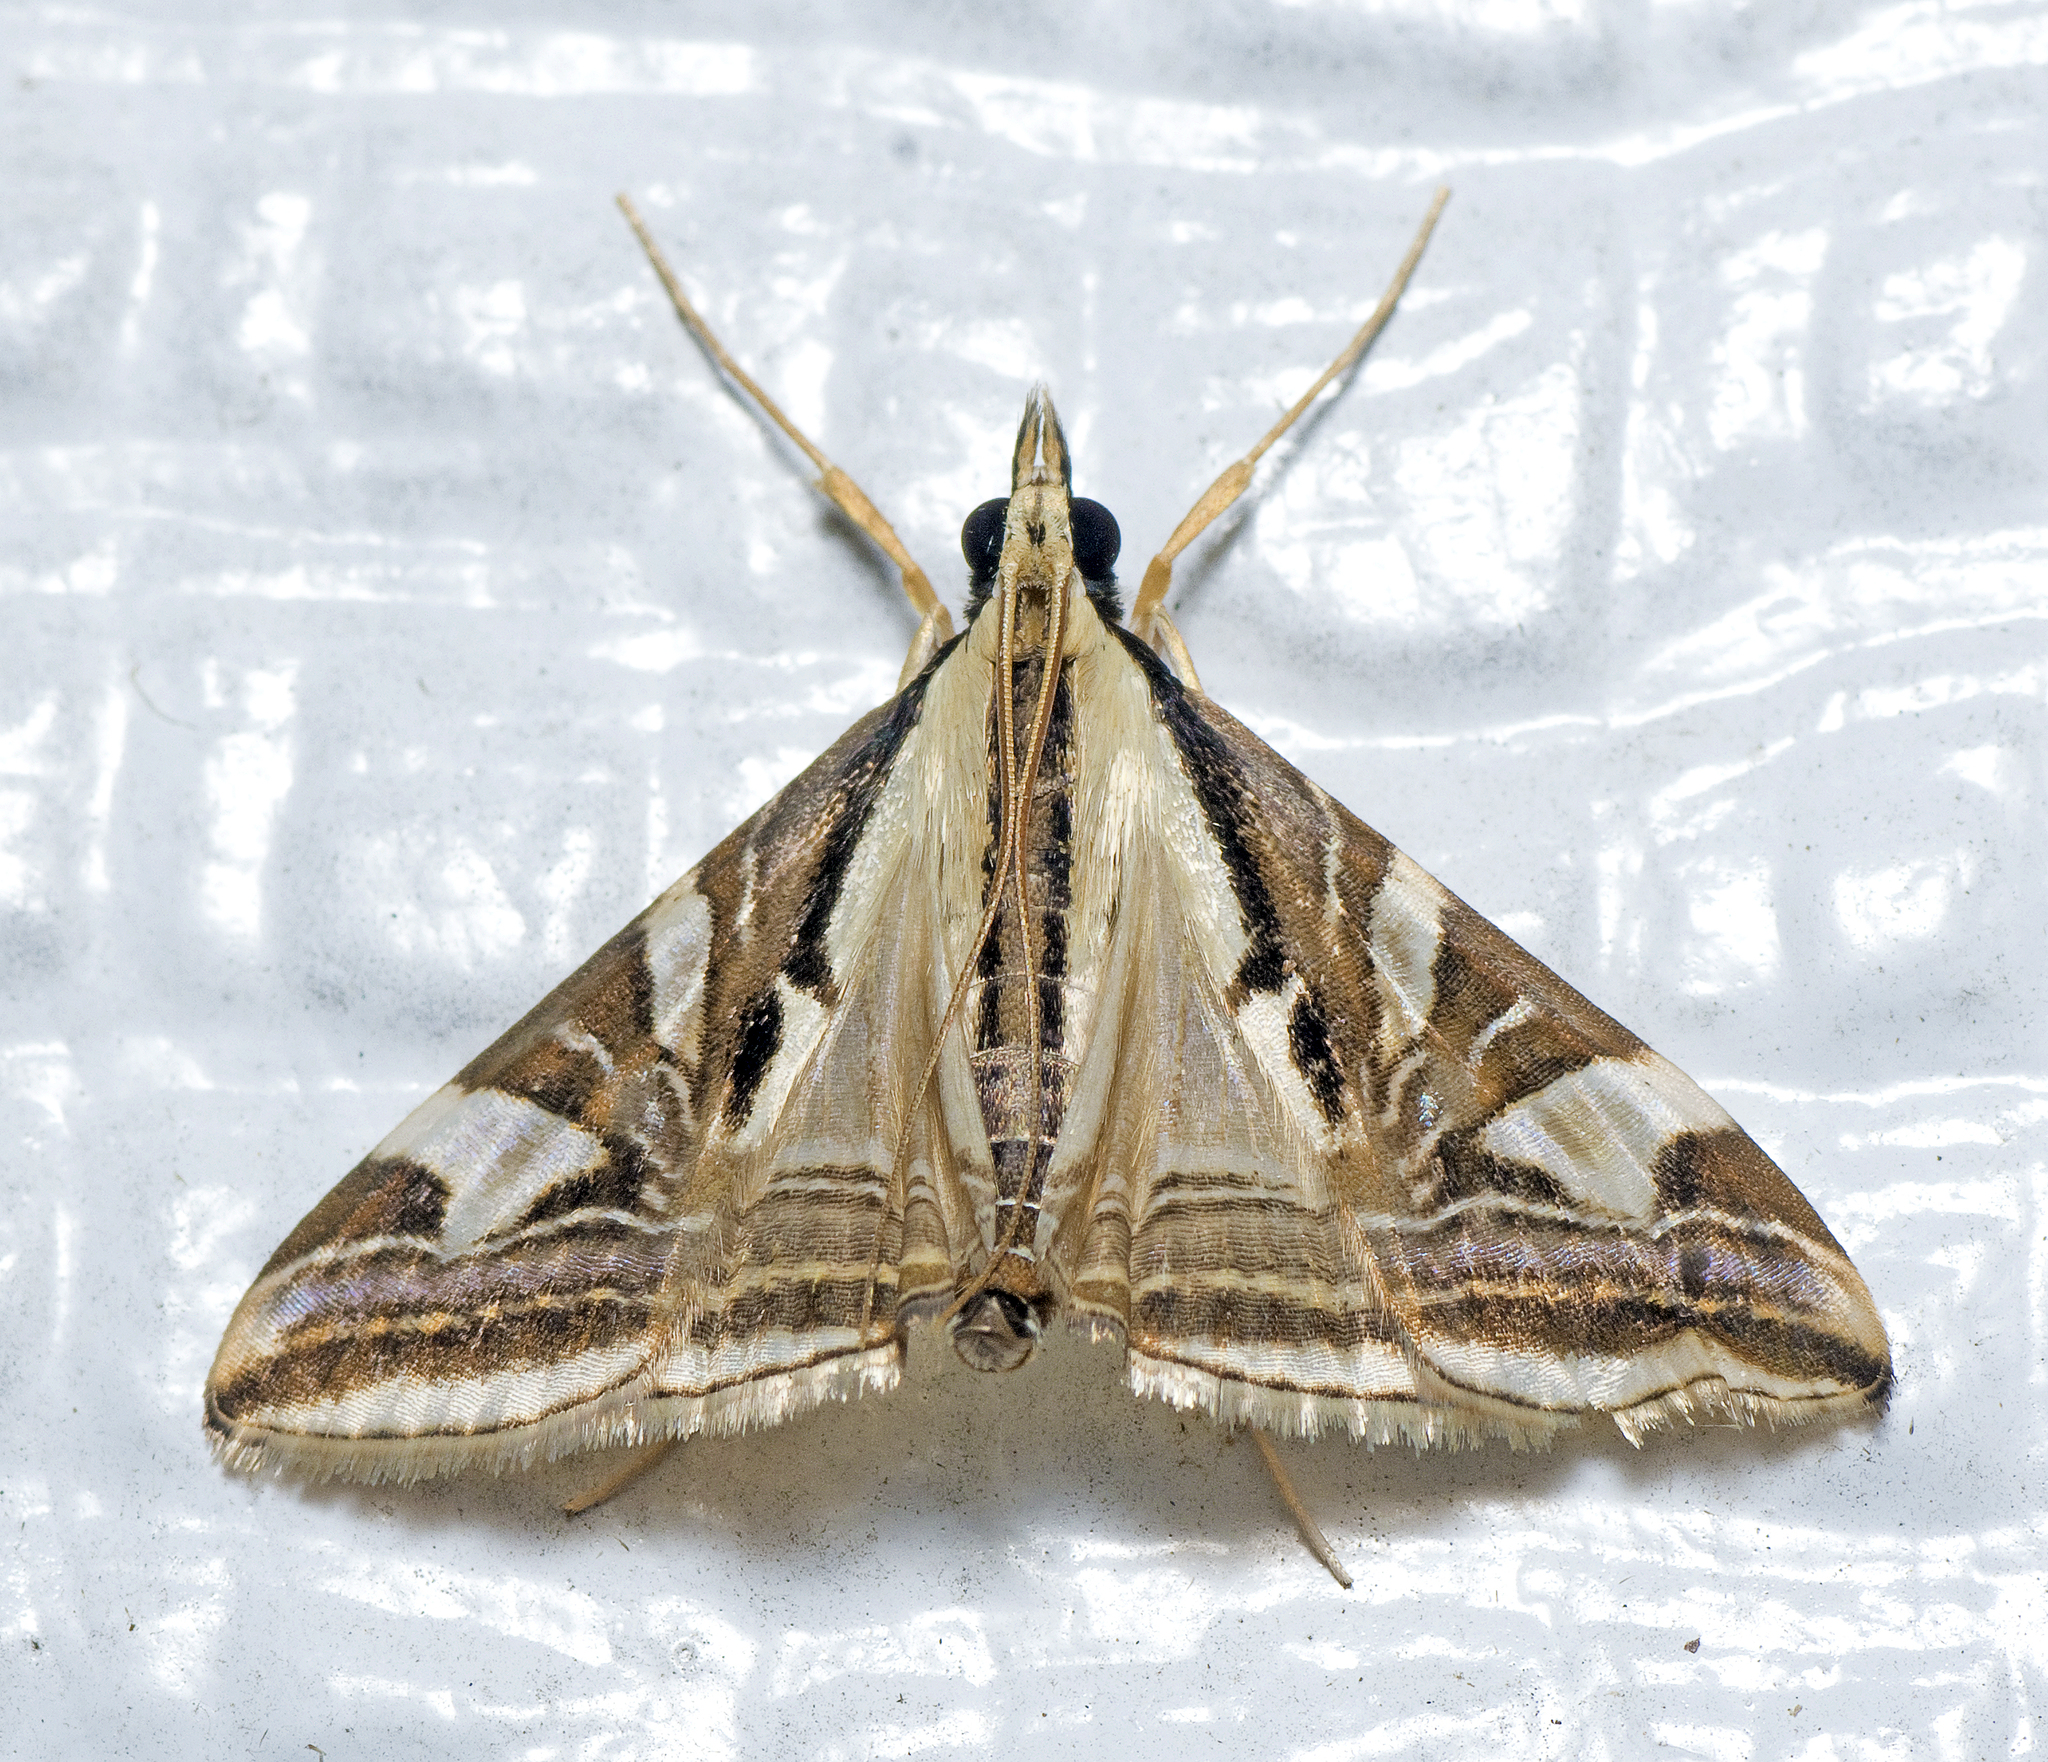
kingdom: Animalia
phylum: Arthropoda
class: Insecta
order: Lepidoptera
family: Crambidae
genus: Agrioglypta
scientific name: Agrioglypta excelsalis
